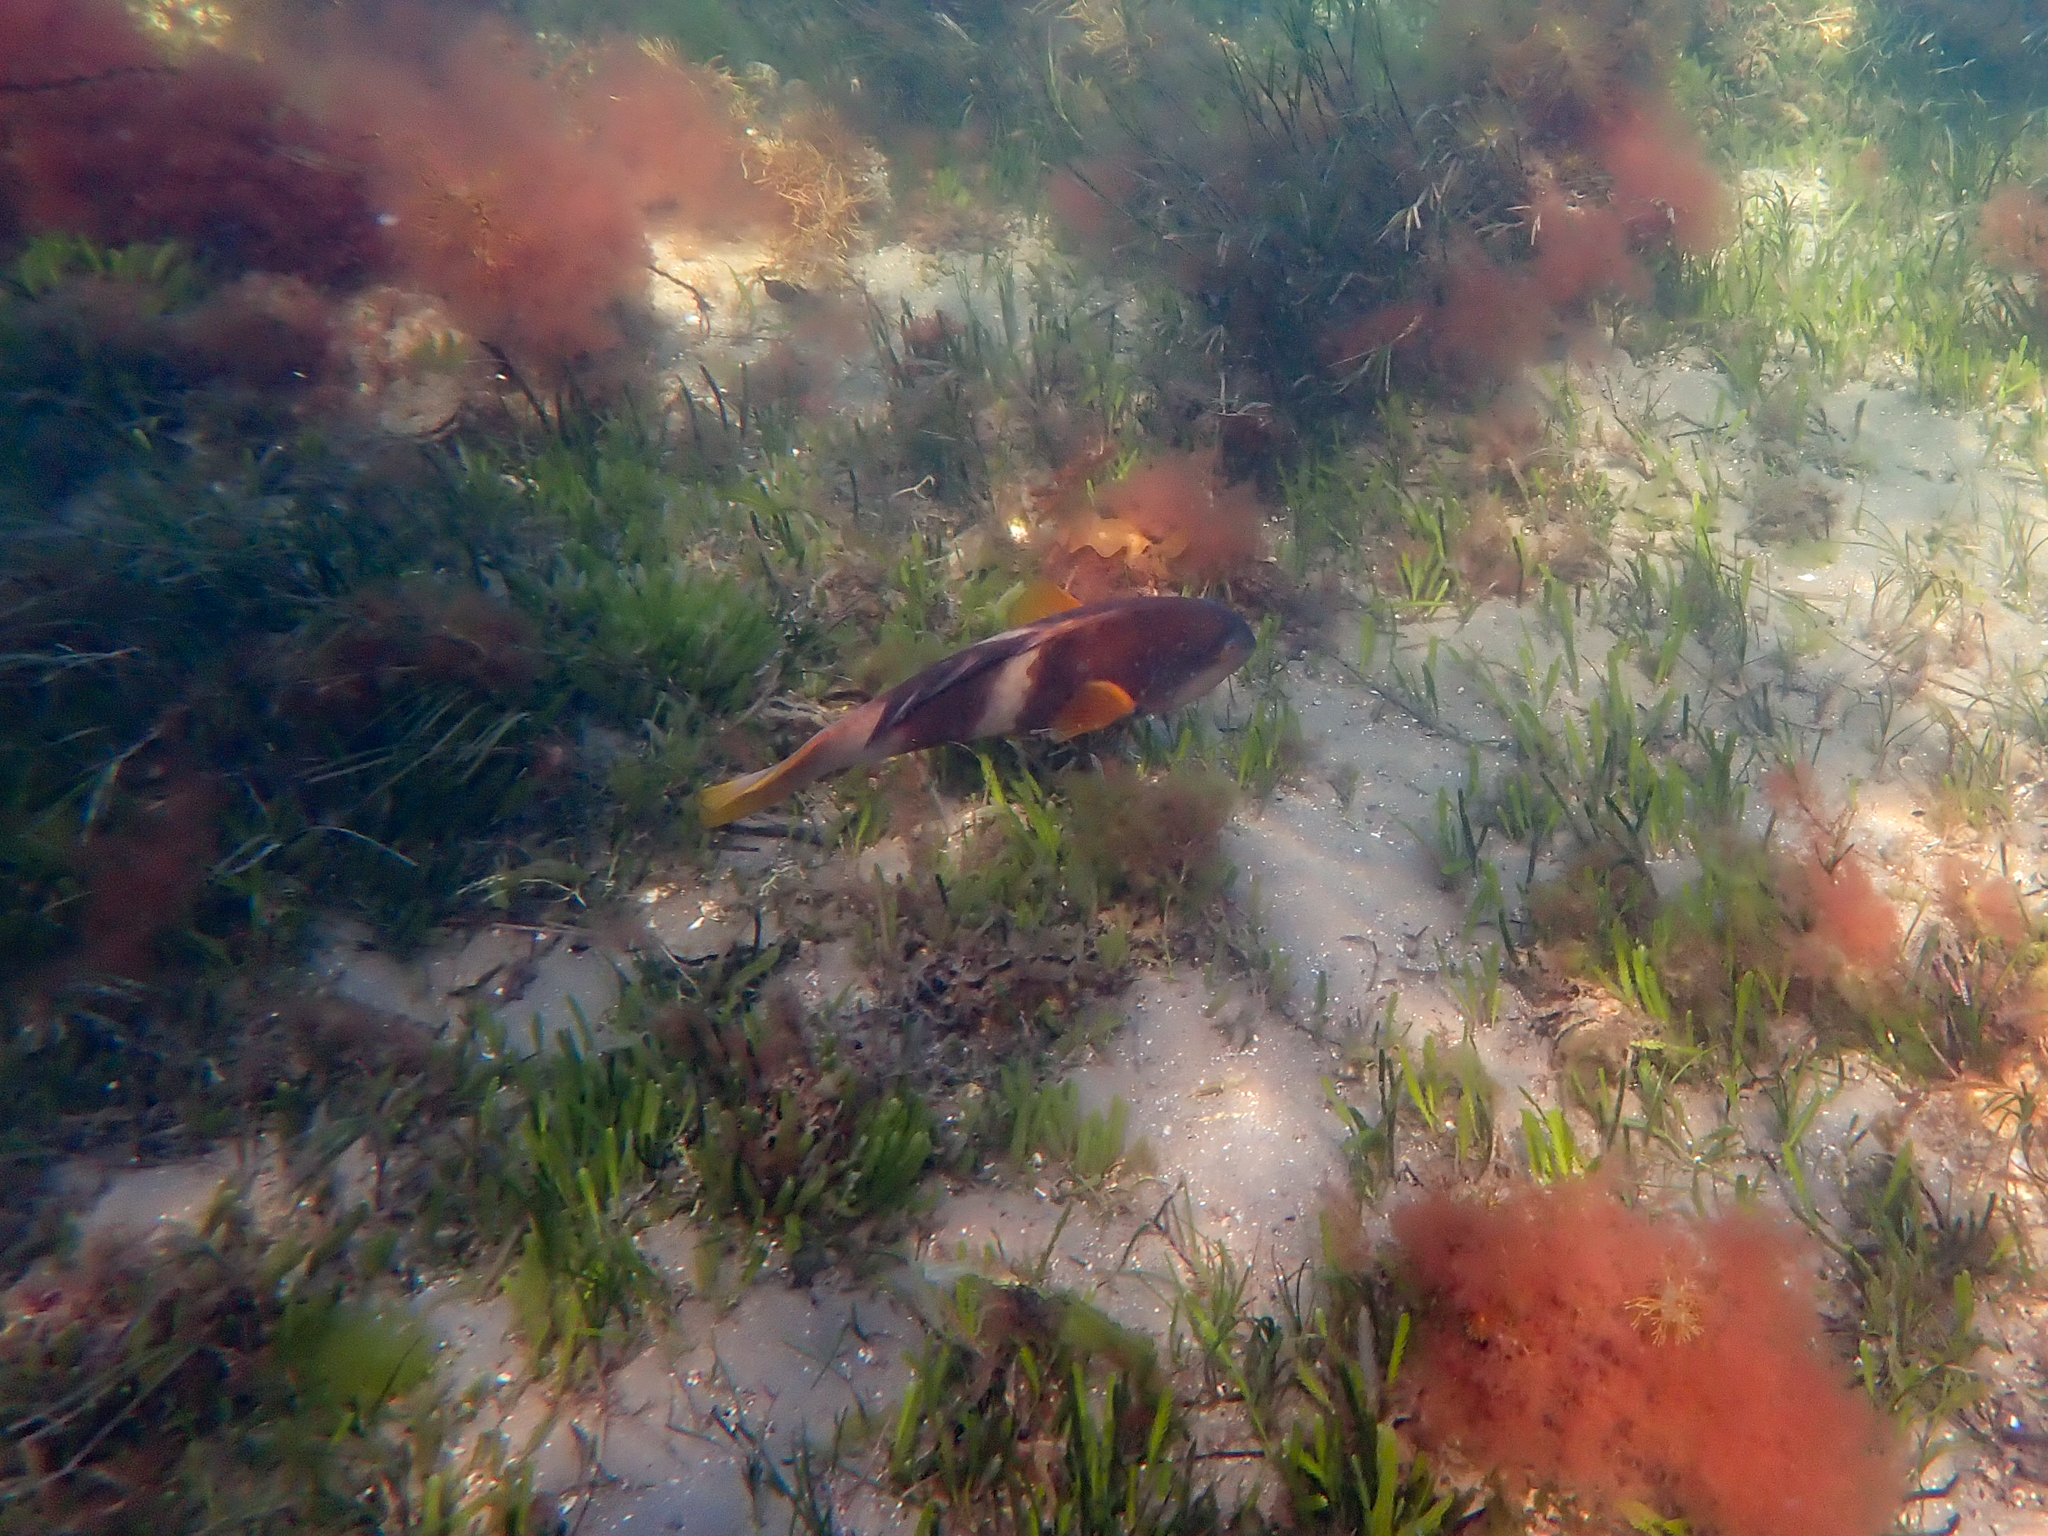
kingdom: Animalia
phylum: Chordata
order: Perciformes
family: Labridae
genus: Notolabrus
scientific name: Notolabrus tetricus
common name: Blue-throated parrotfish
